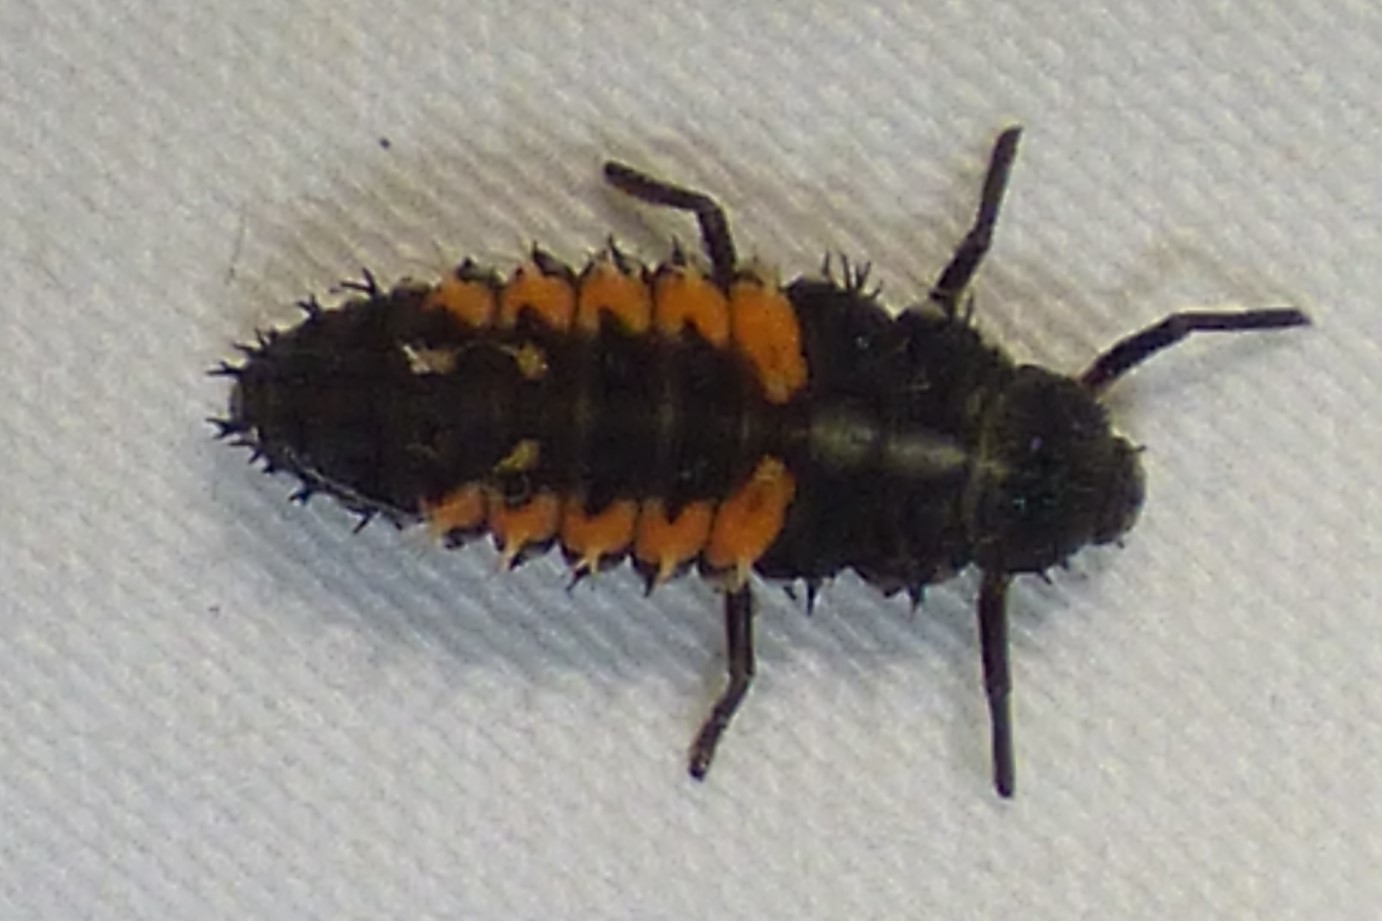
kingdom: Animalia
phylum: Arthropoda
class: Insecta
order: Coleoptera
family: Coccinellidae
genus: Harmonia
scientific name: Harmonia axyridis
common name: Harlequin ladybird
